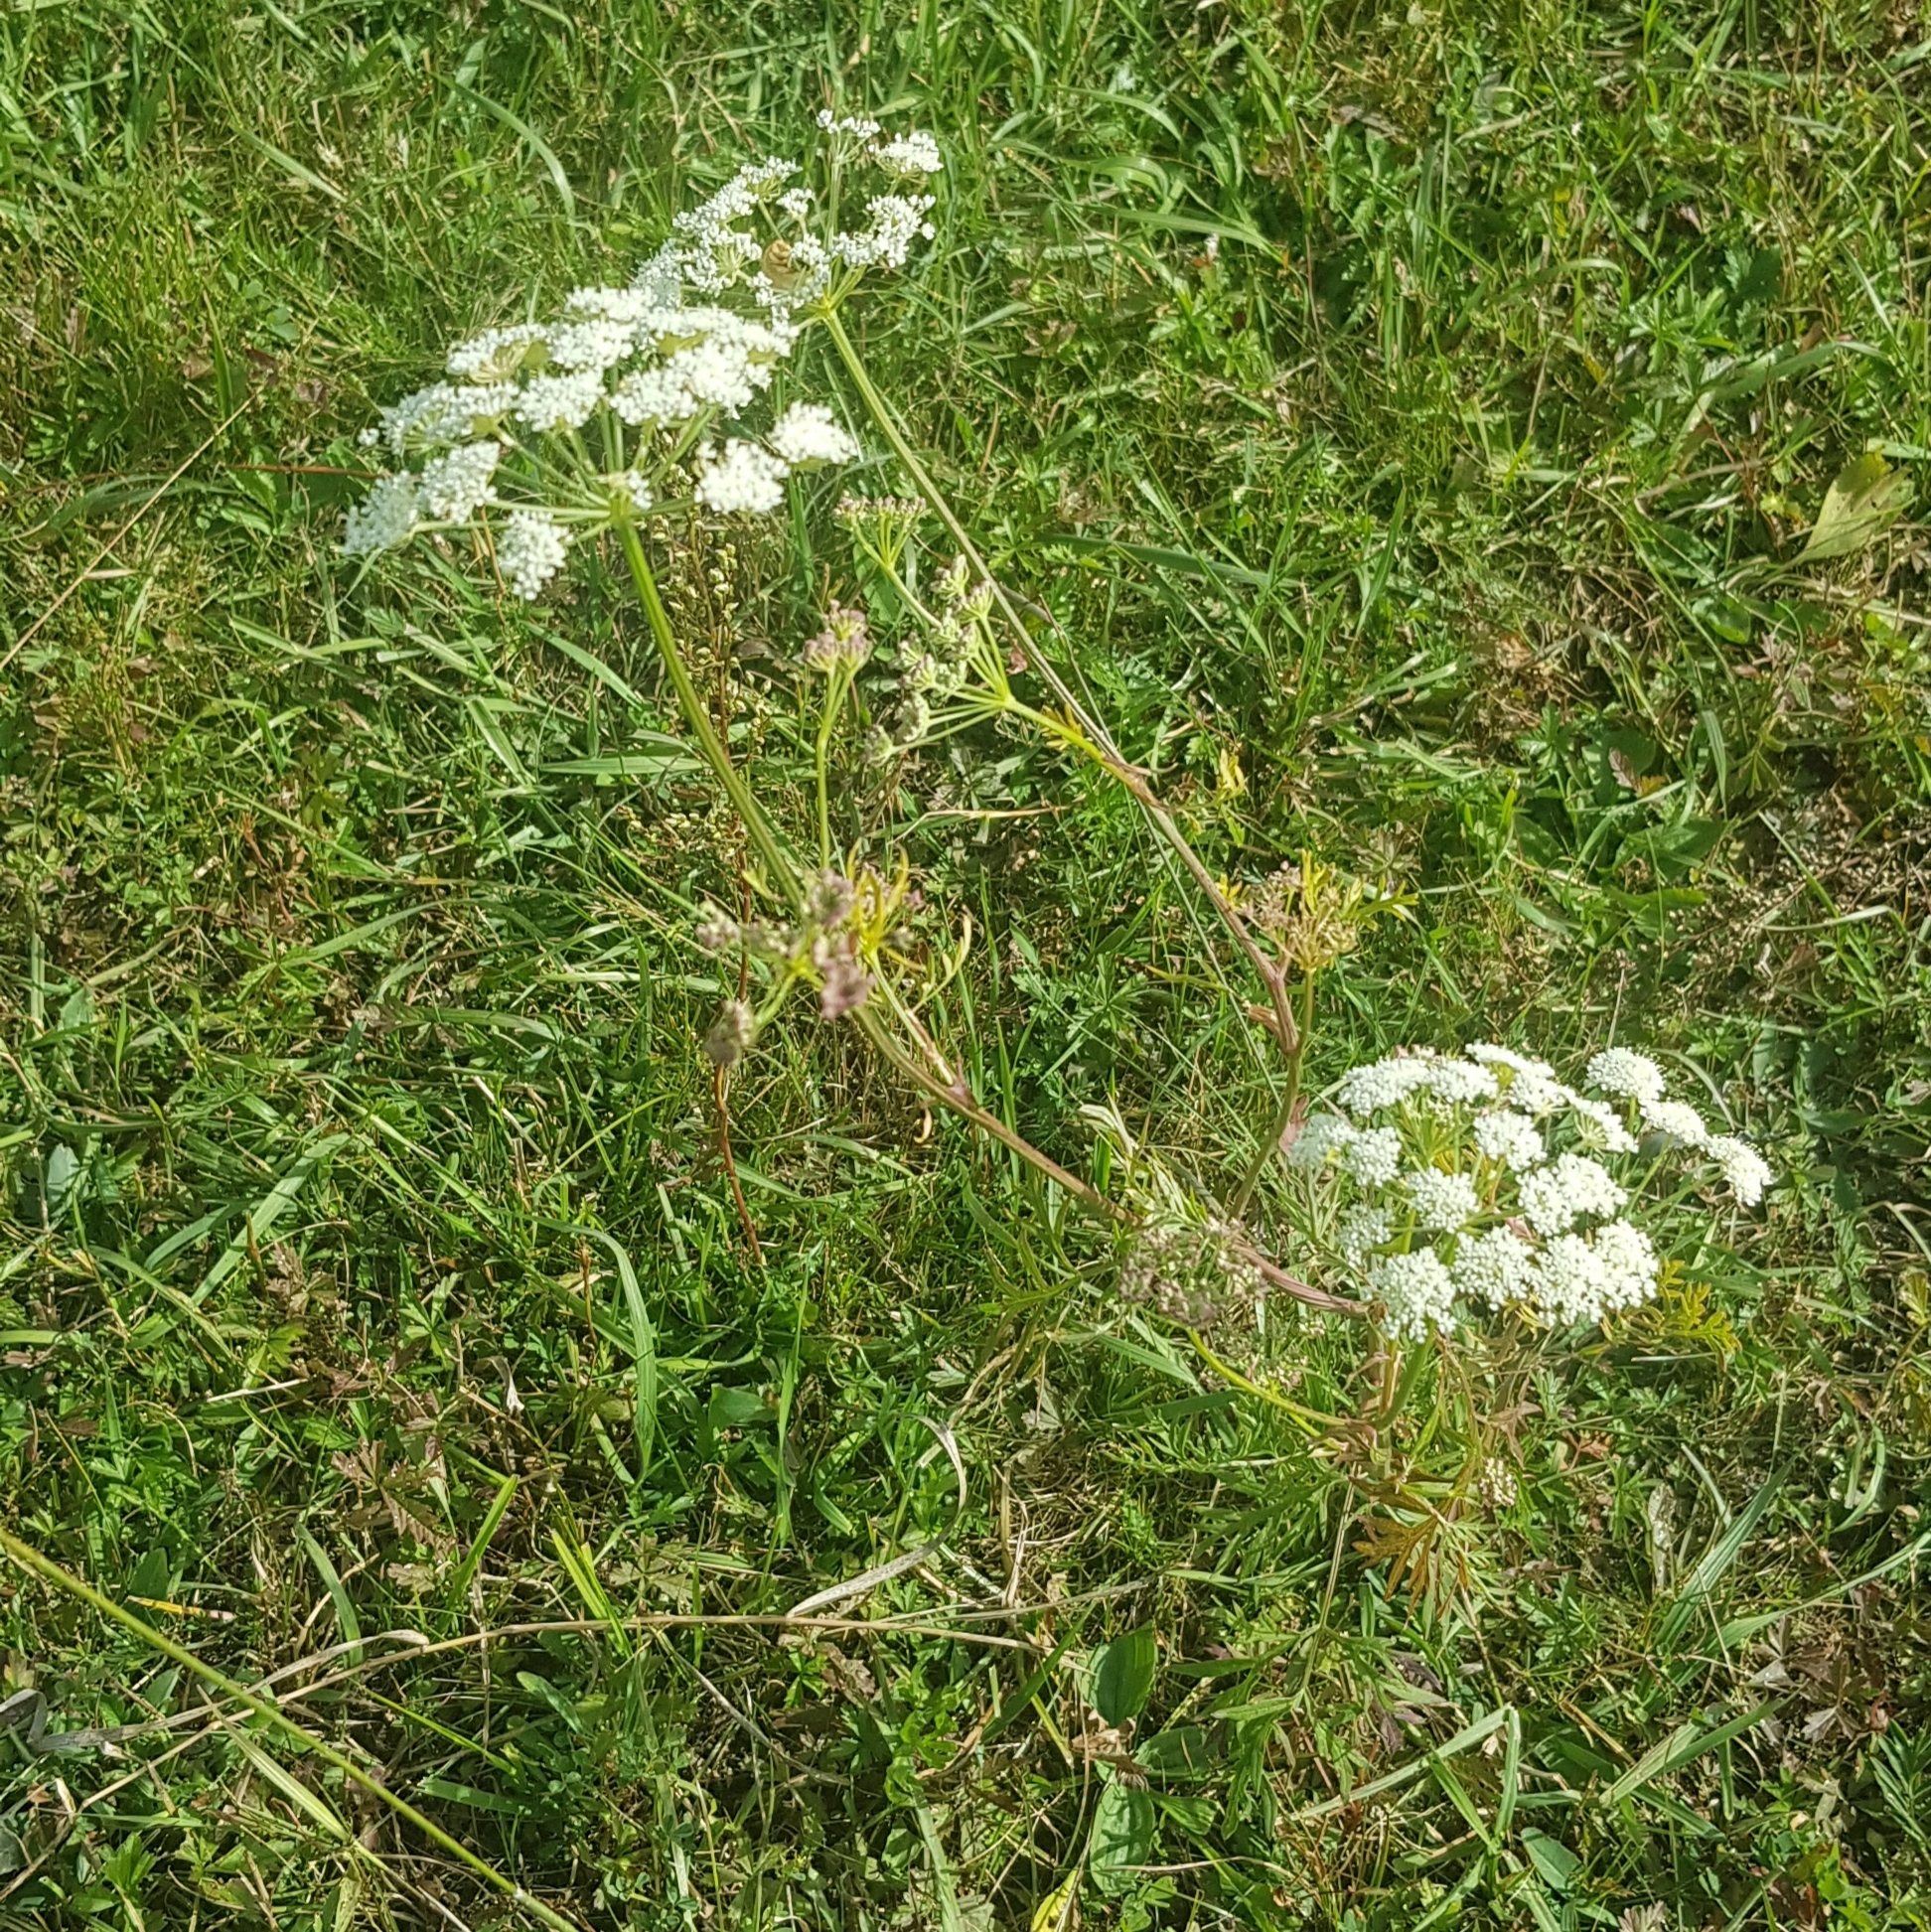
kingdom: Plantae
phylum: Tracheophyta
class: Magnoliopsida
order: Apiales
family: Apiaceae
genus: Kadenia
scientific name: Kadenia salina
